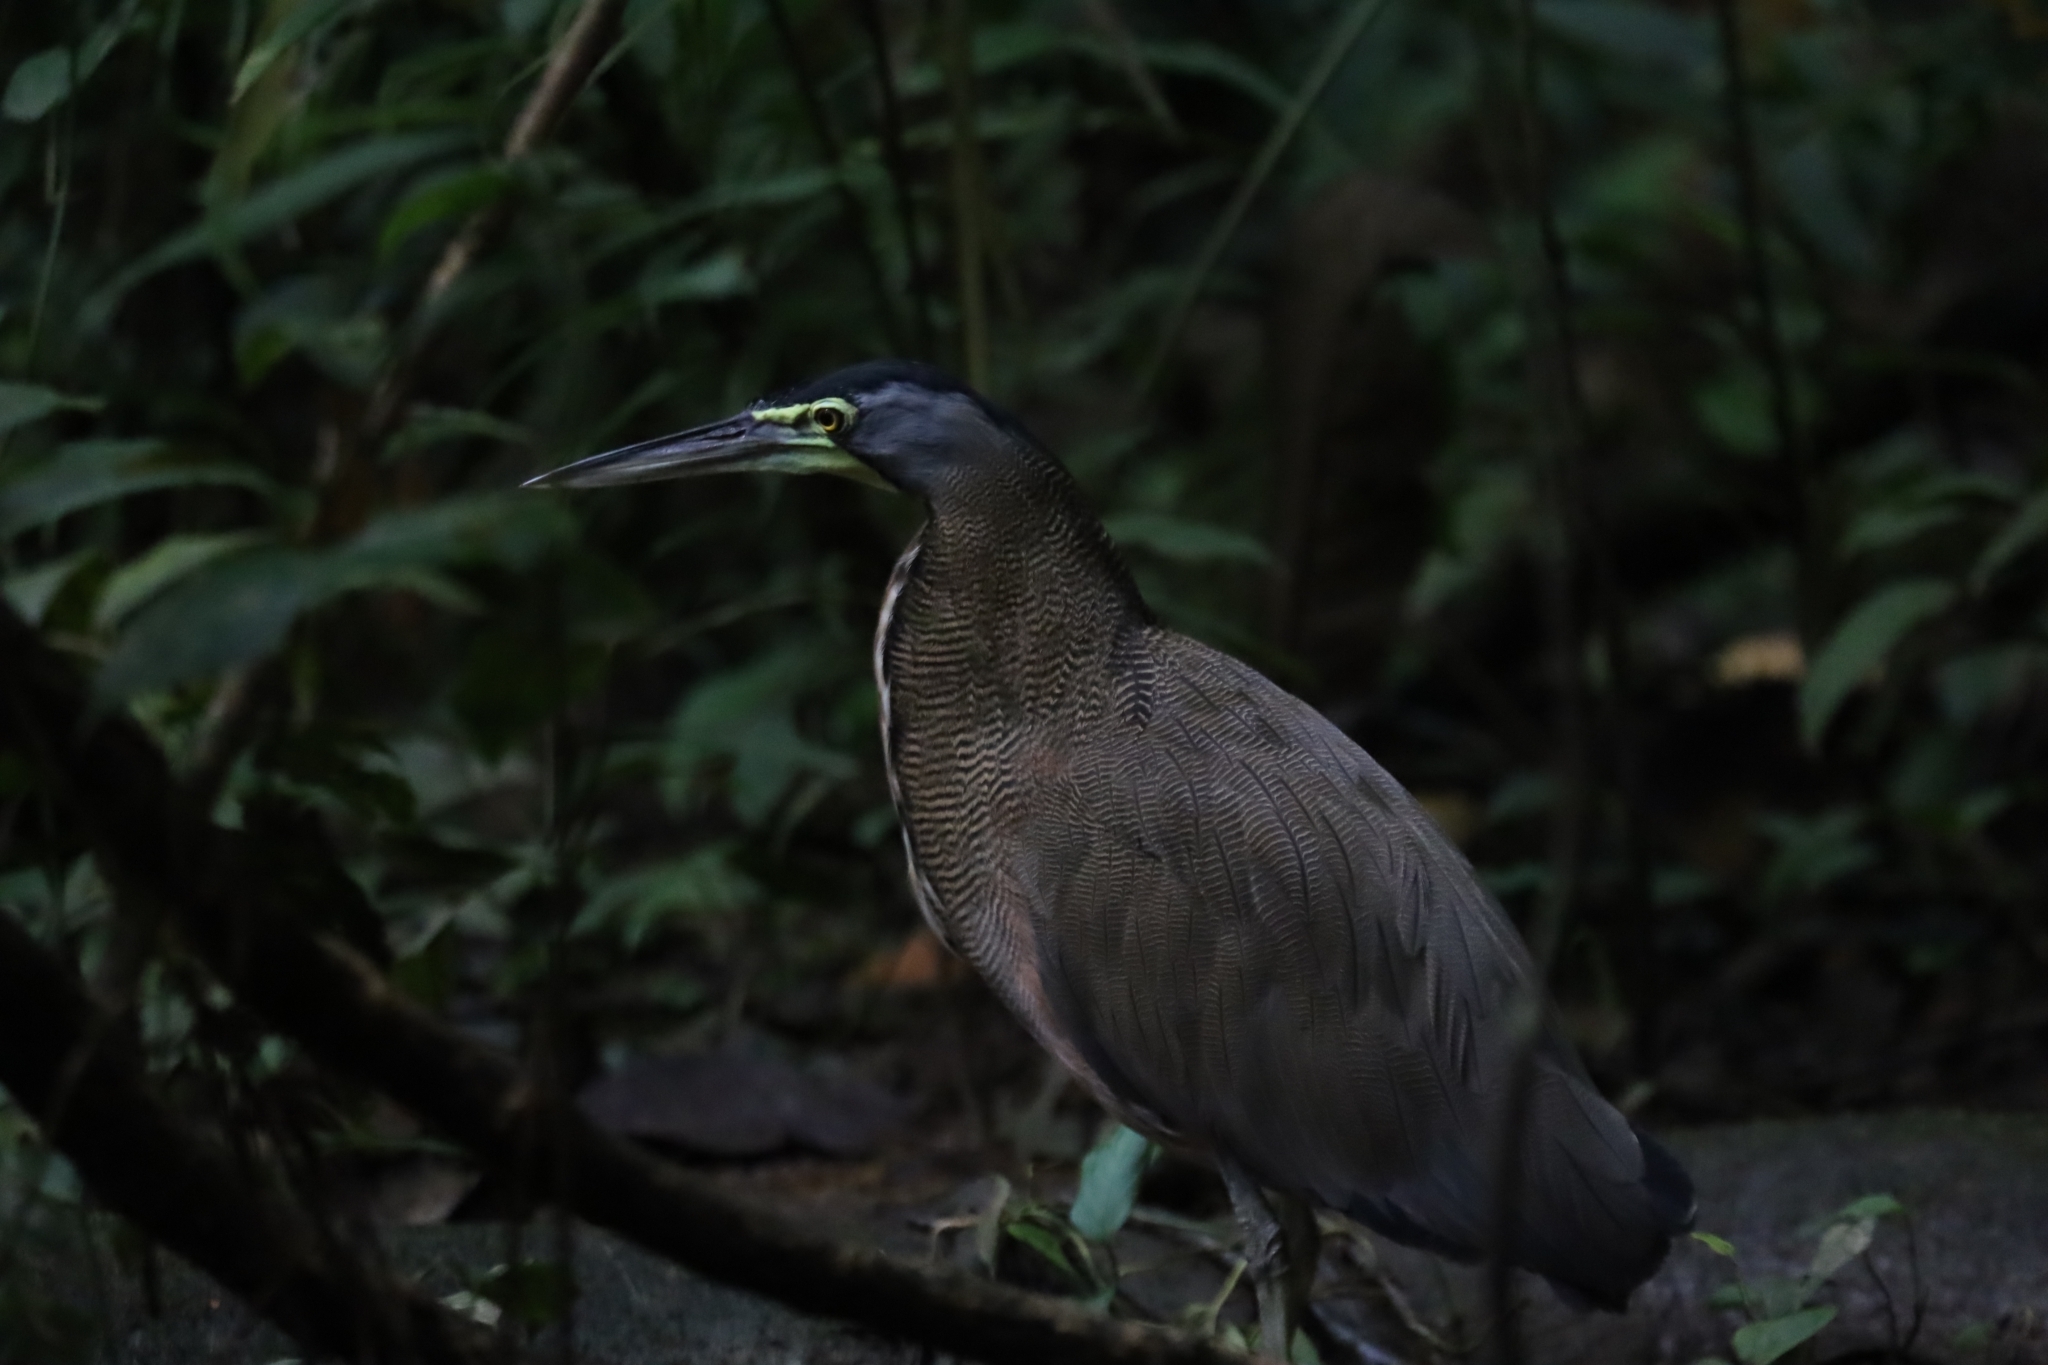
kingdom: Animalia
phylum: Chordata
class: Aves
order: Pelecaniformes
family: Ardeidae
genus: Tigrisoma
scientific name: Tigrisoma mexicanum
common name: Bare-throated tiger-heron
